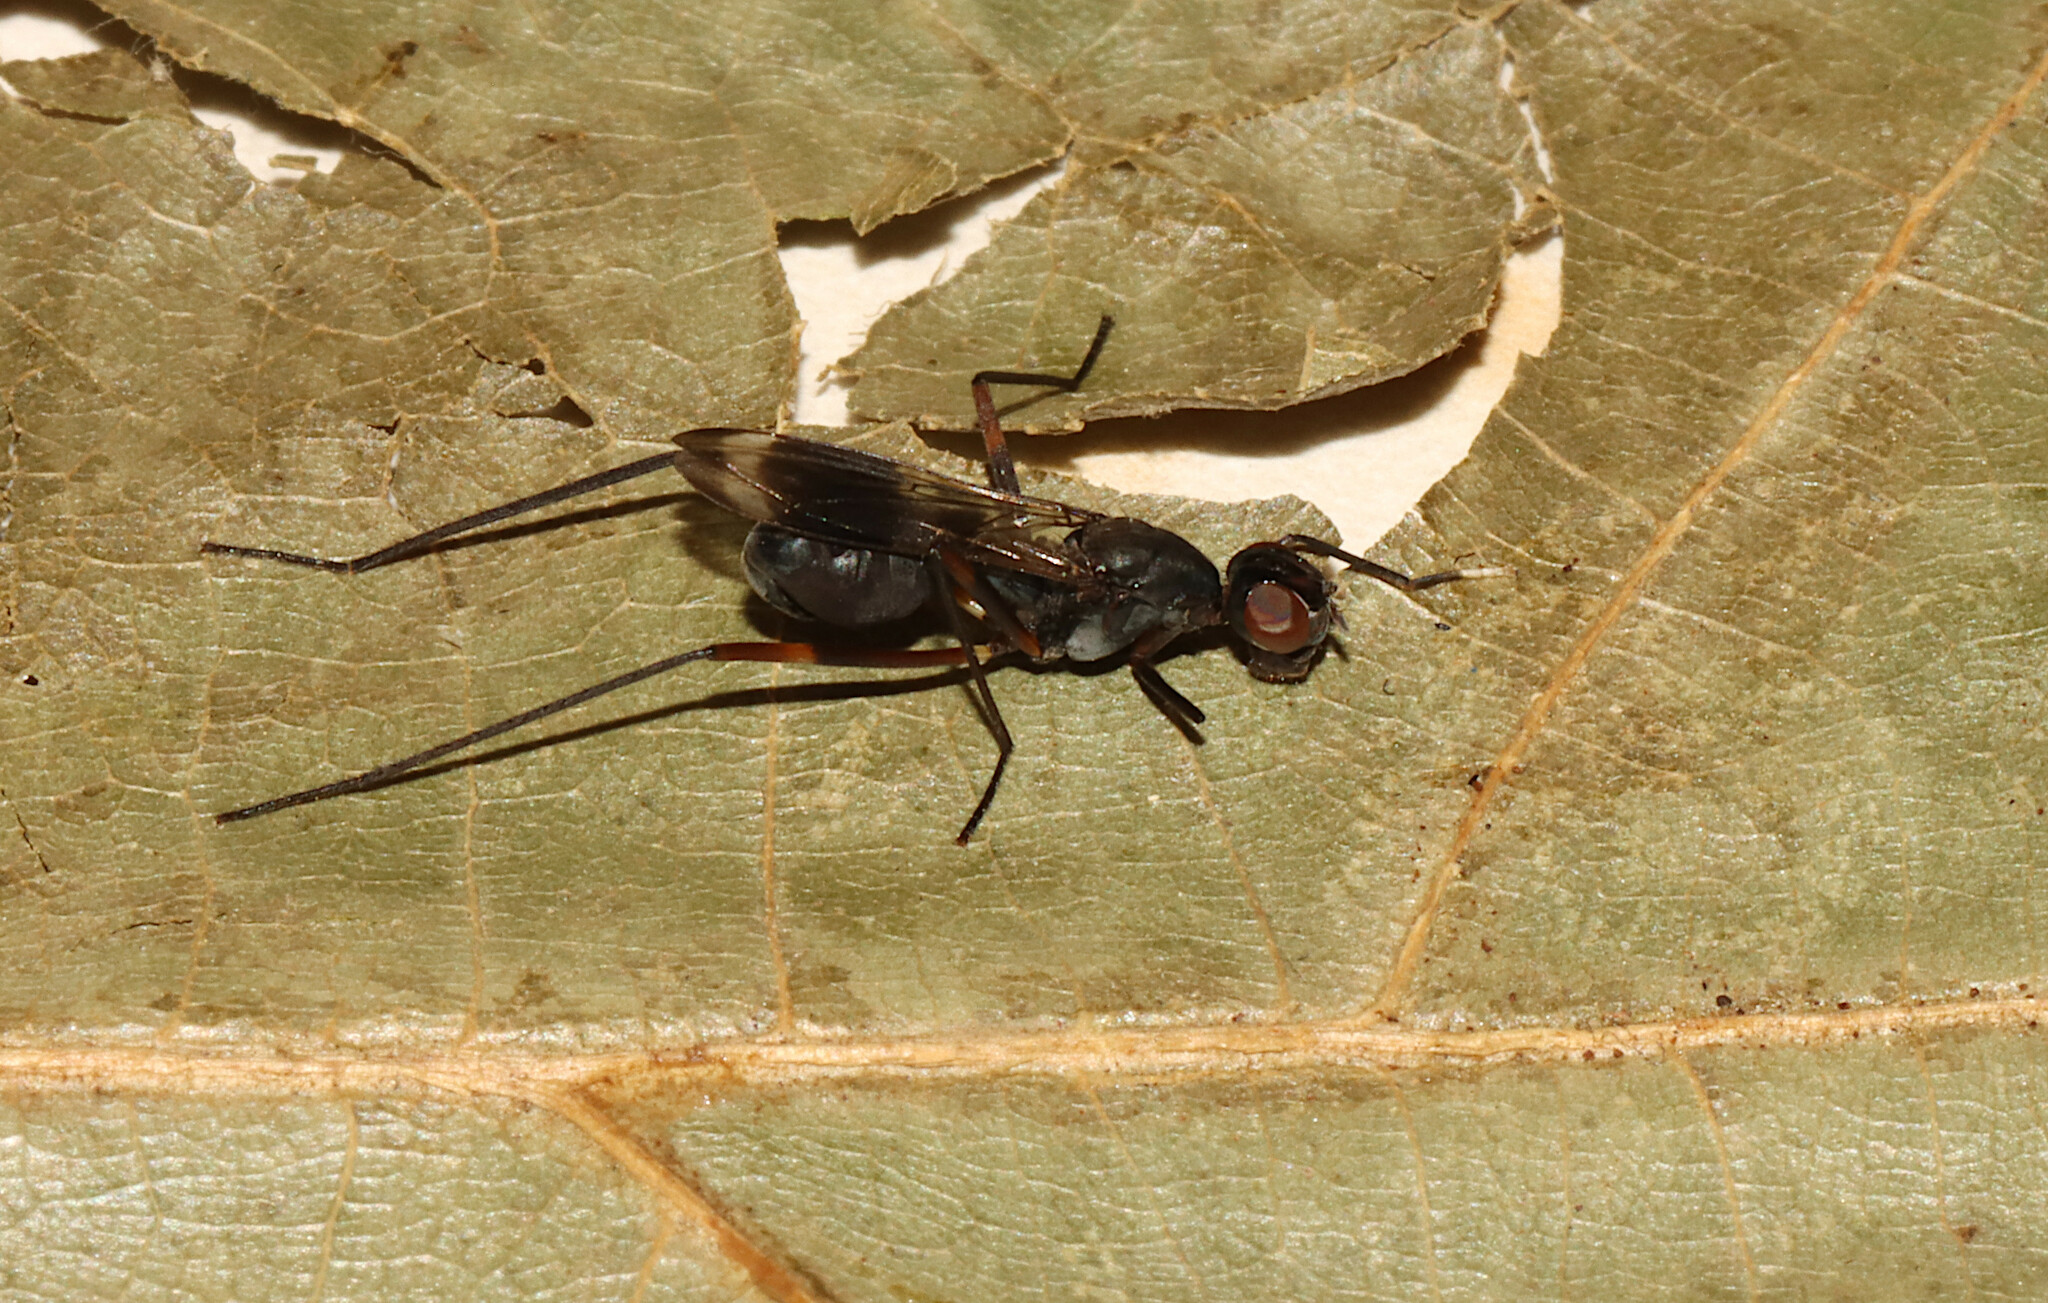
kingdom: Animalia
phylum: Arthropoda
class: Insecta
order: Diptera
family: Micropezidae
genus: Taeniaptera
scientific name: Taeniaptera trivittata
